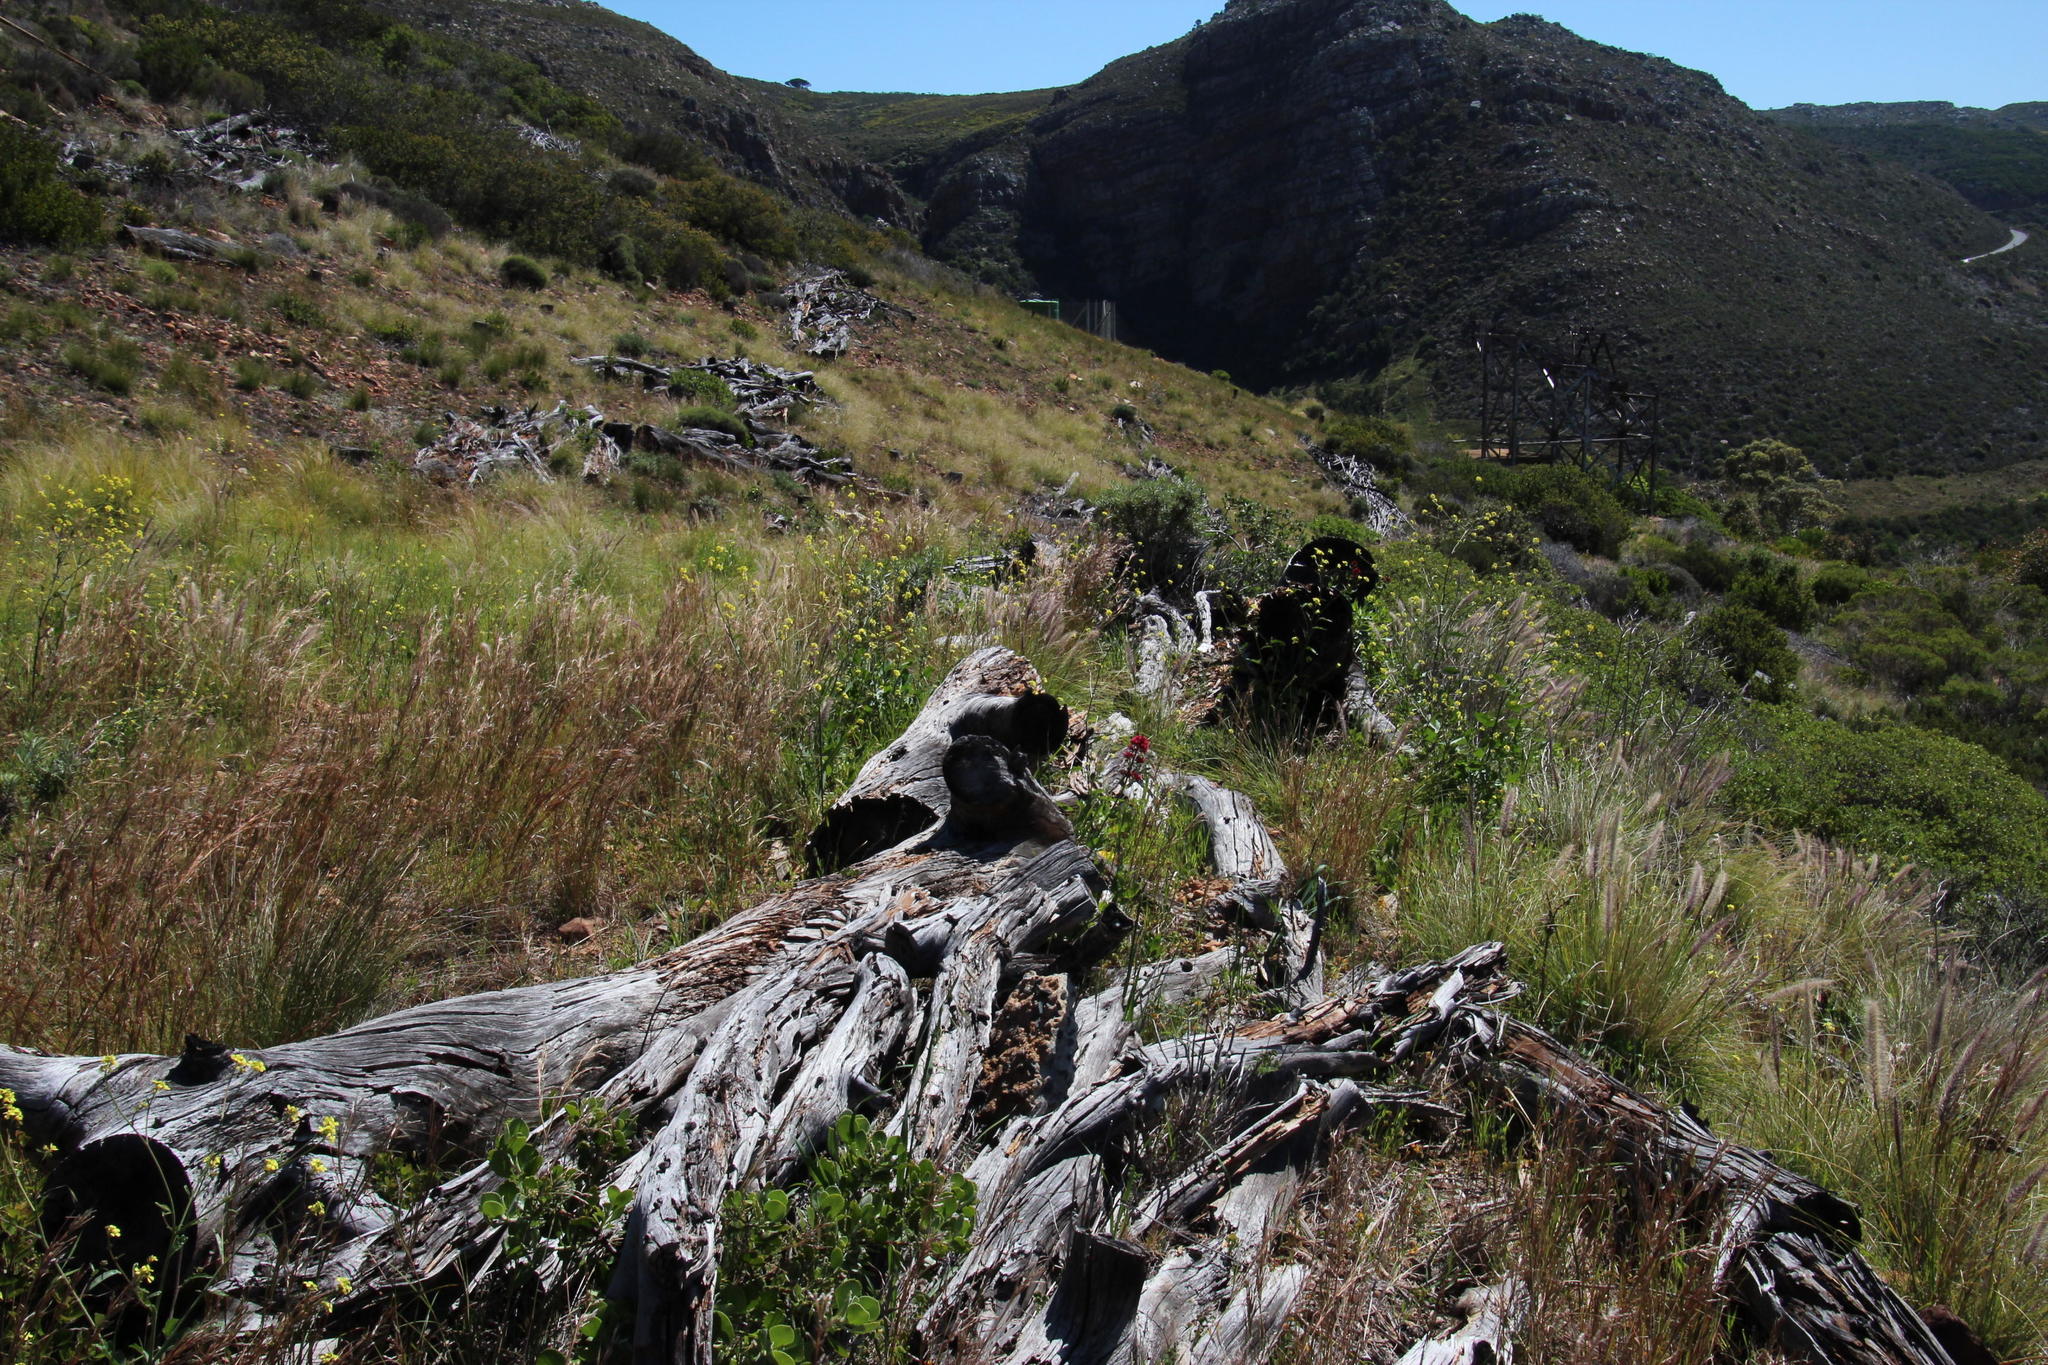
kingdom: Plantae
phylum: Tracheophyta
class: Magnoliopsida
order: Dipsacales
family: Caprifoliaceae
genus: Centranthus
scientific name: Centranthus ruber
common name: Red valerian
